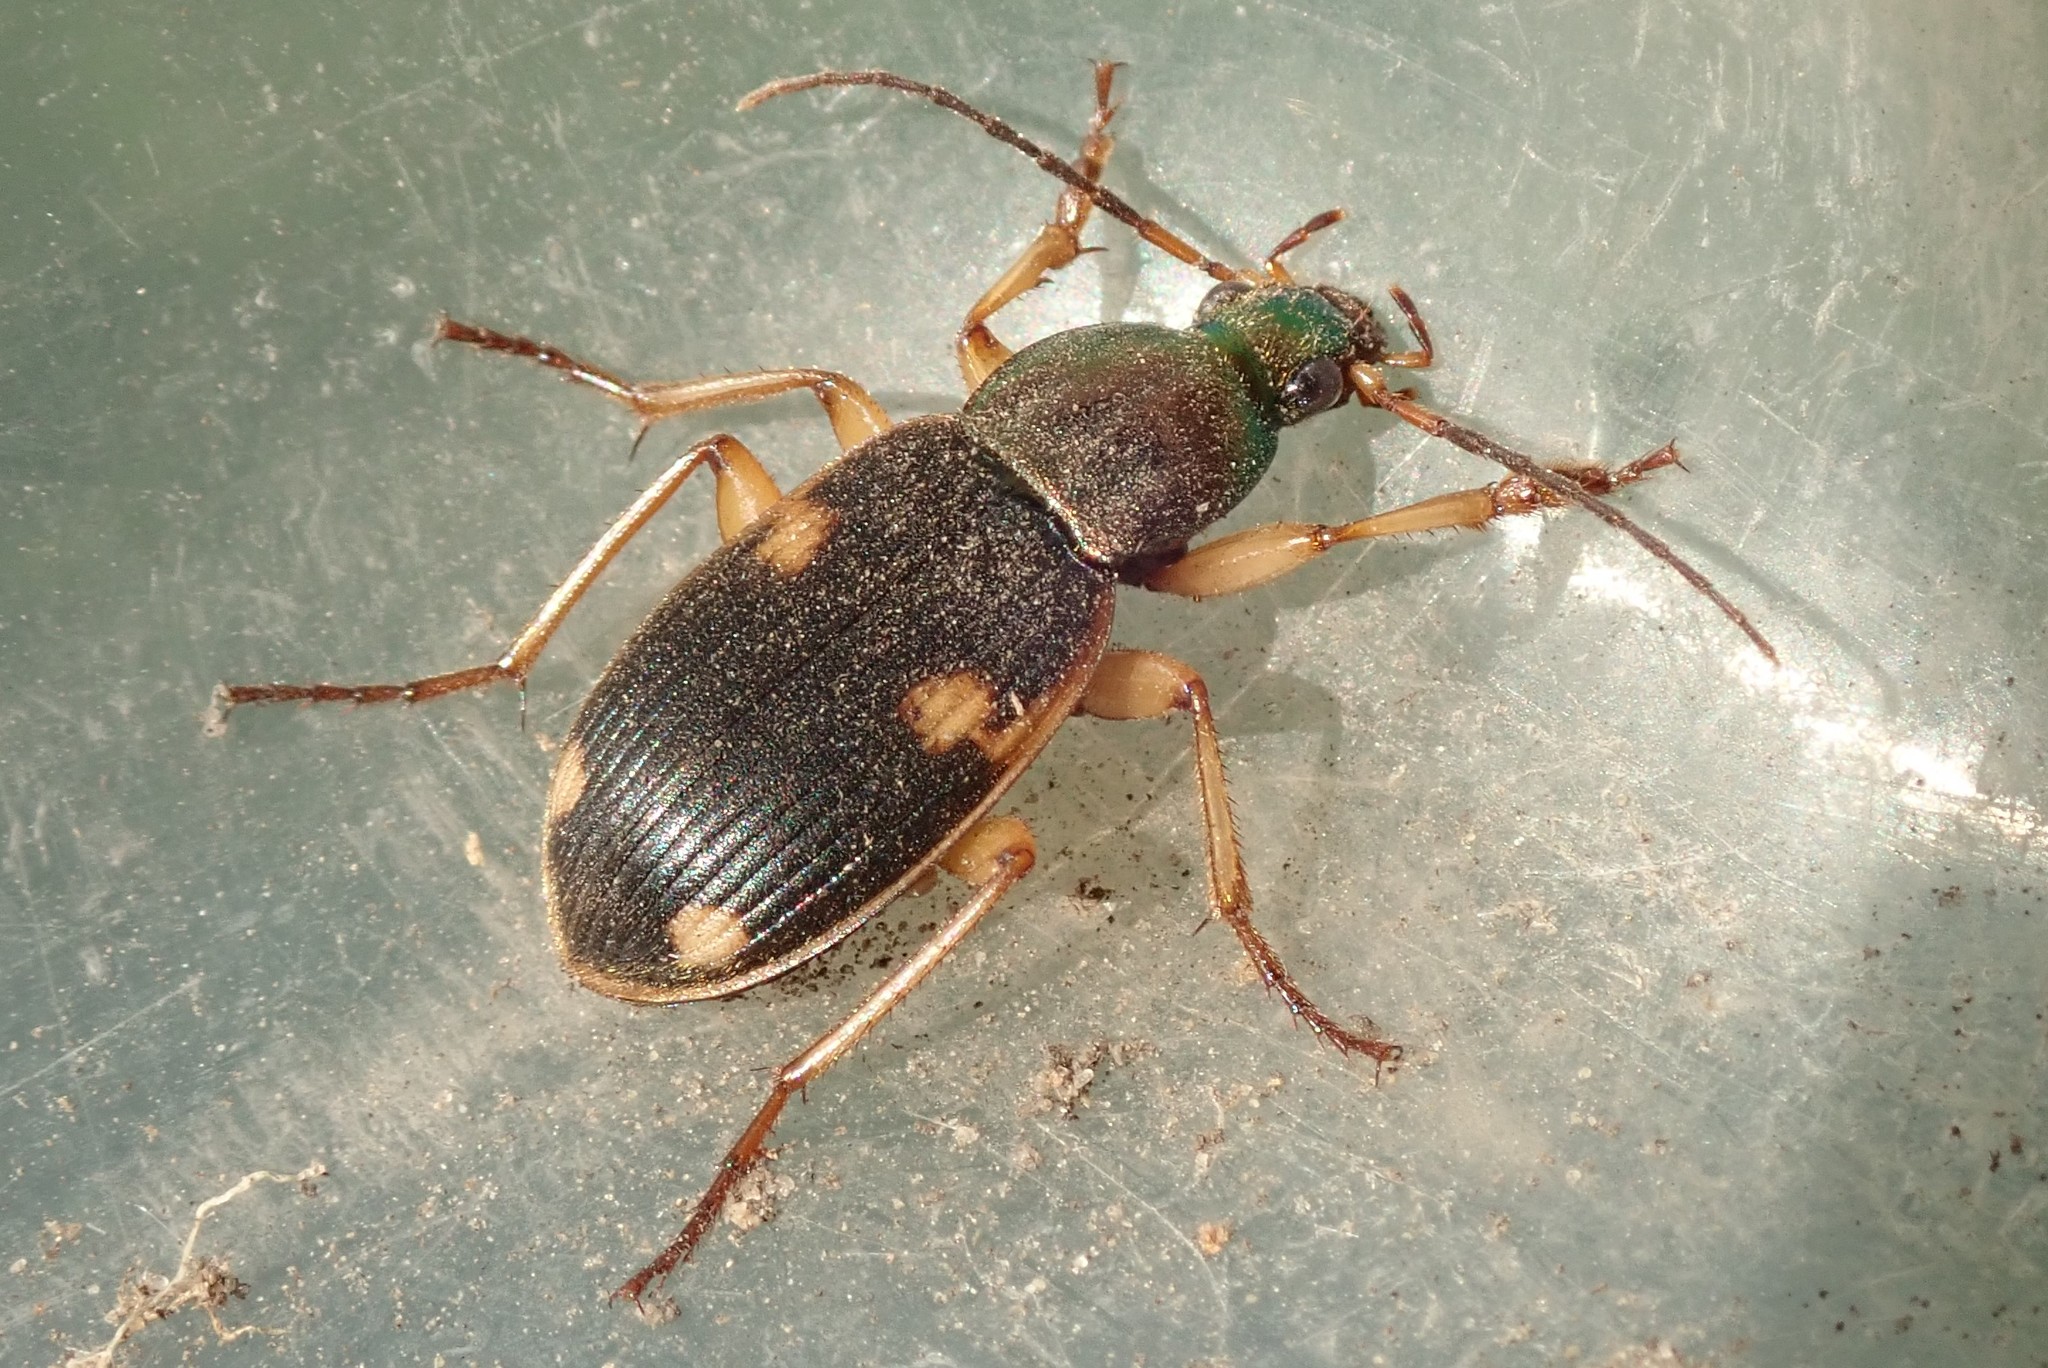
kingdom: Animalia
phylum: Arthropoda
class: Insecta
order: Coleoptera
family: Carabidae
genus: Chlaenius
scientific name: Chlaenius dusaultii
